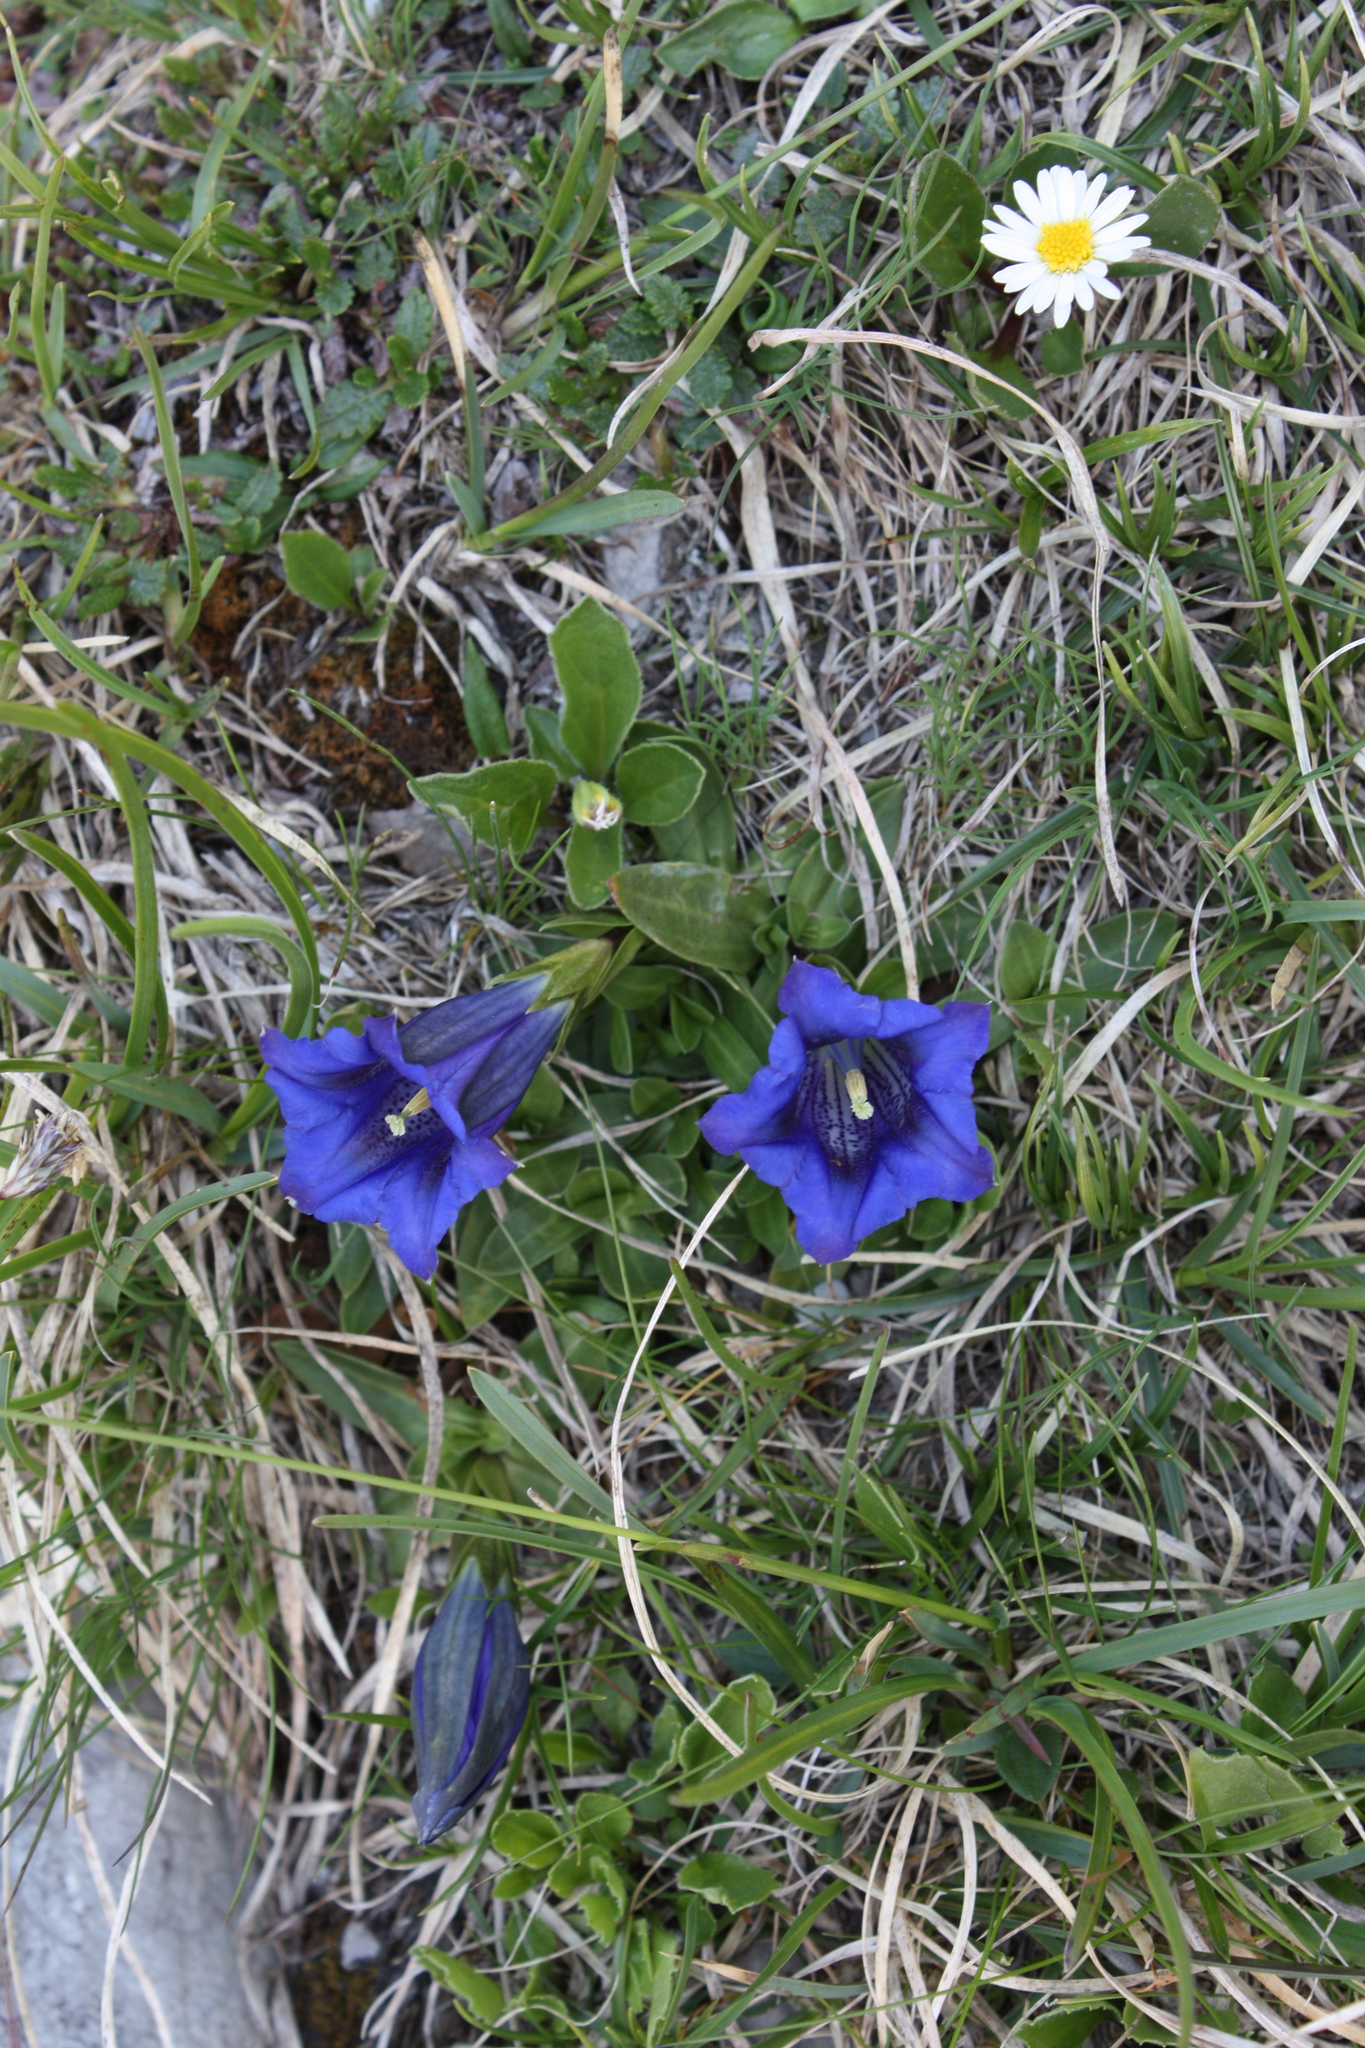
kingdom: Plantae
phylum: Tracheophyta
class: Magnoliopsida
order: Gentianales
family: Gentianaceae
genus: Gentiana
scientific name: Gentiana clusii
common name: Trumpet gentian
